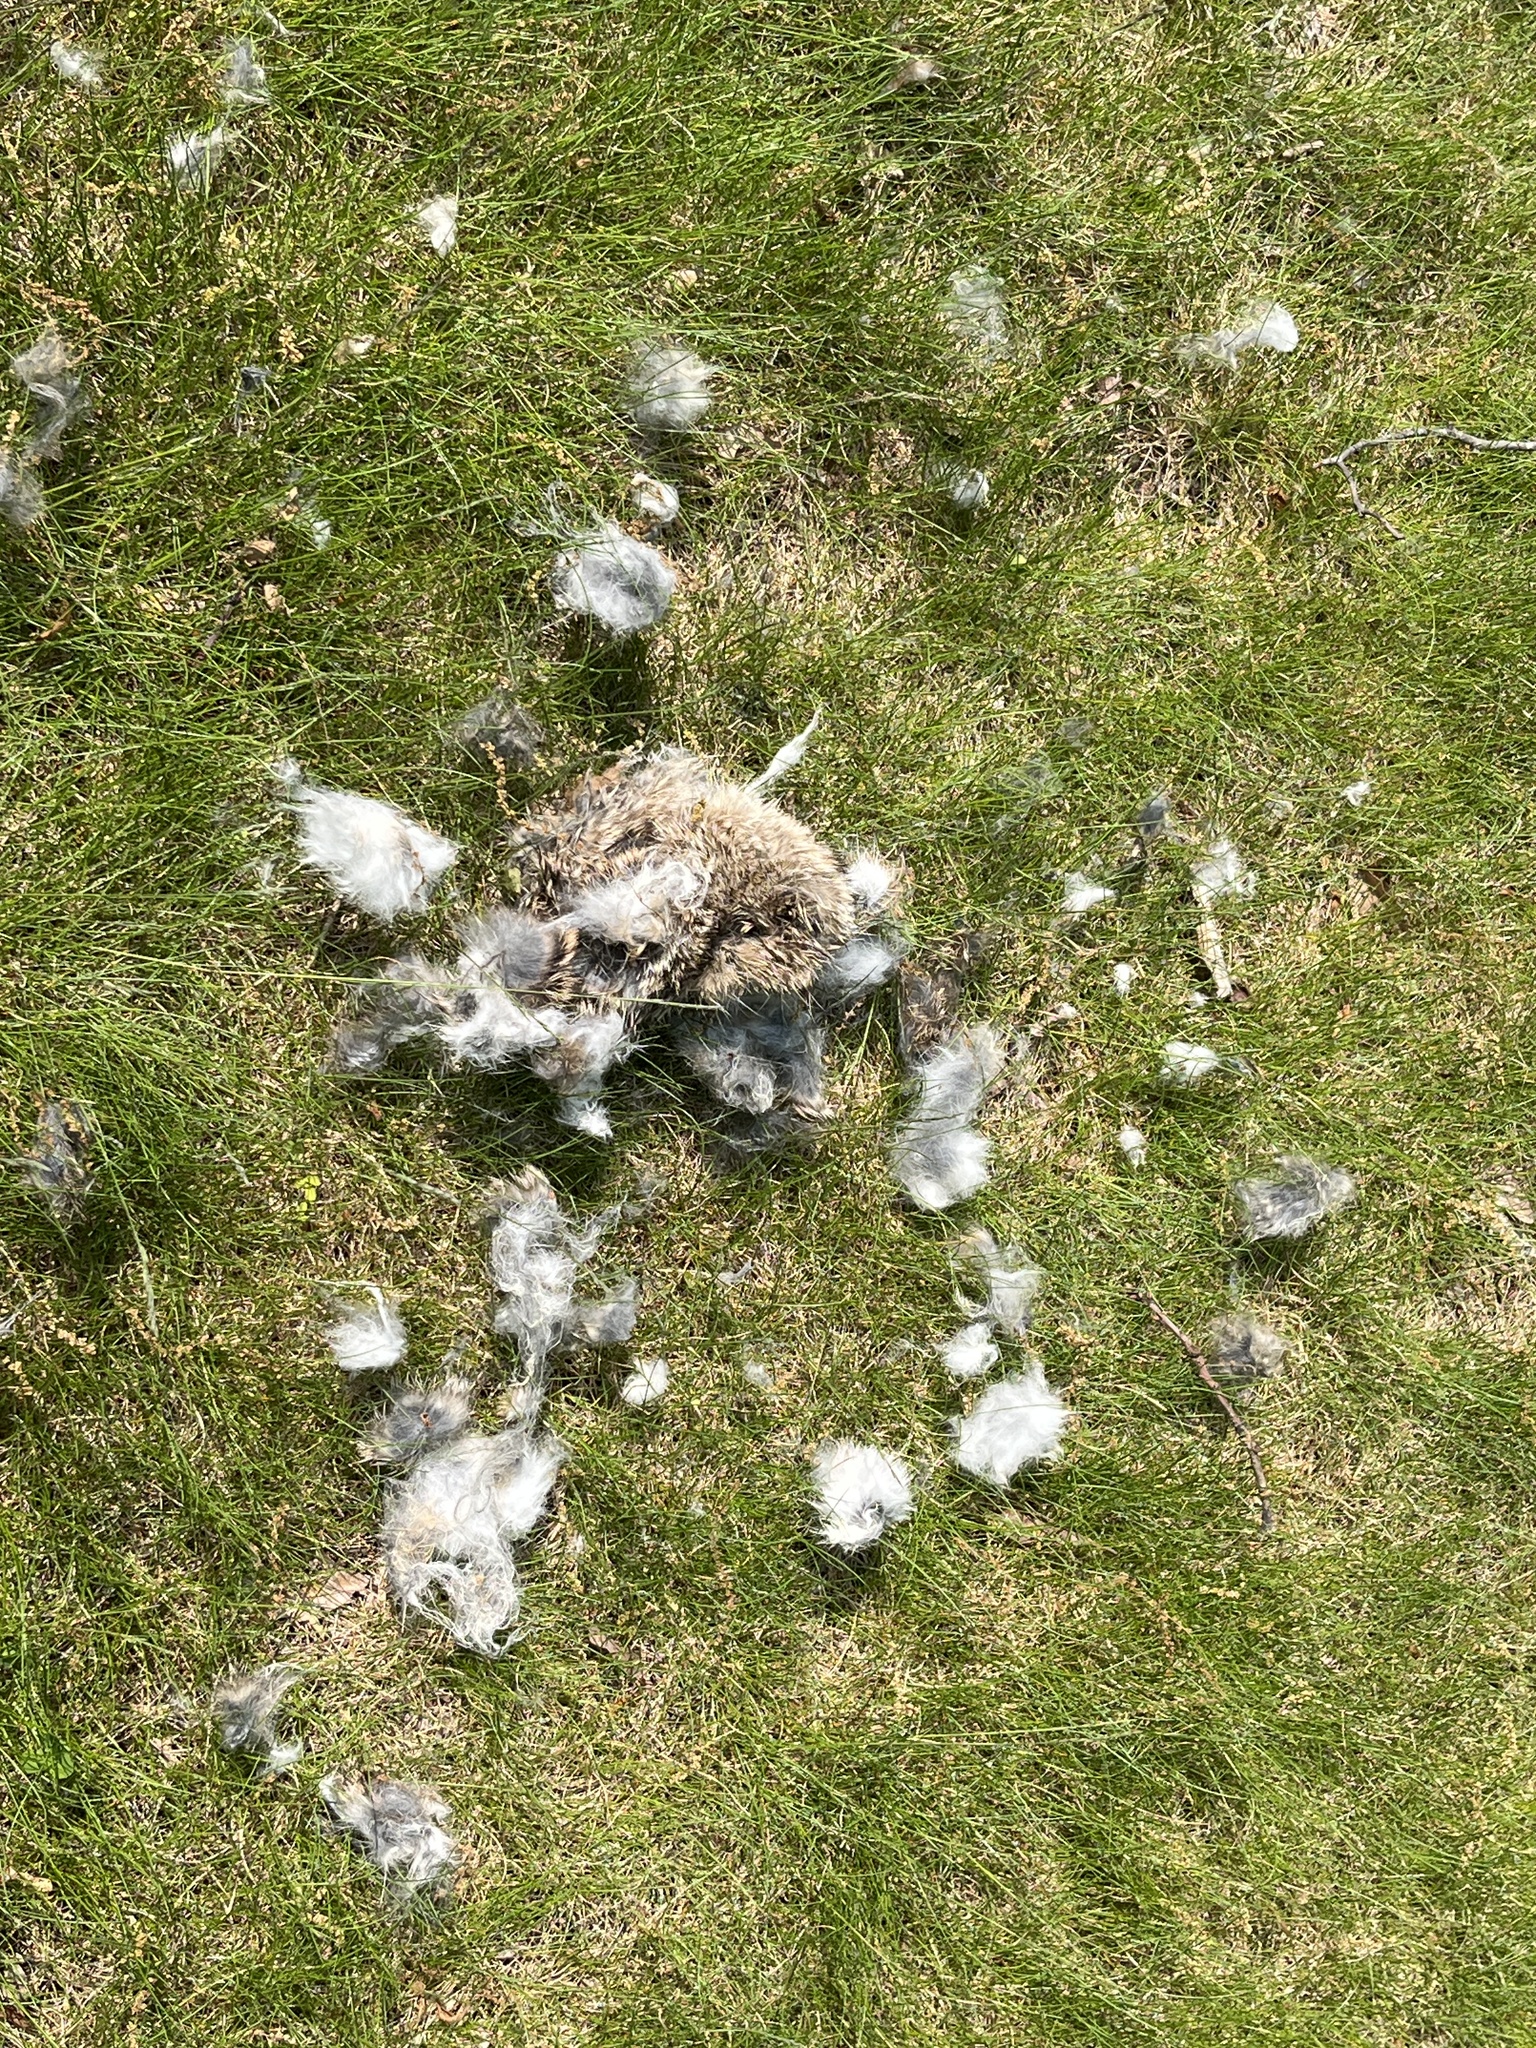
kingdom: Animalia
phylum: Chordata
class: Mammalia
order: Lagomorpha
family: Leporidae
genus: Sylvilagus
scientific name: Sylvilagus floridanus
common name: Eastern cottontail
